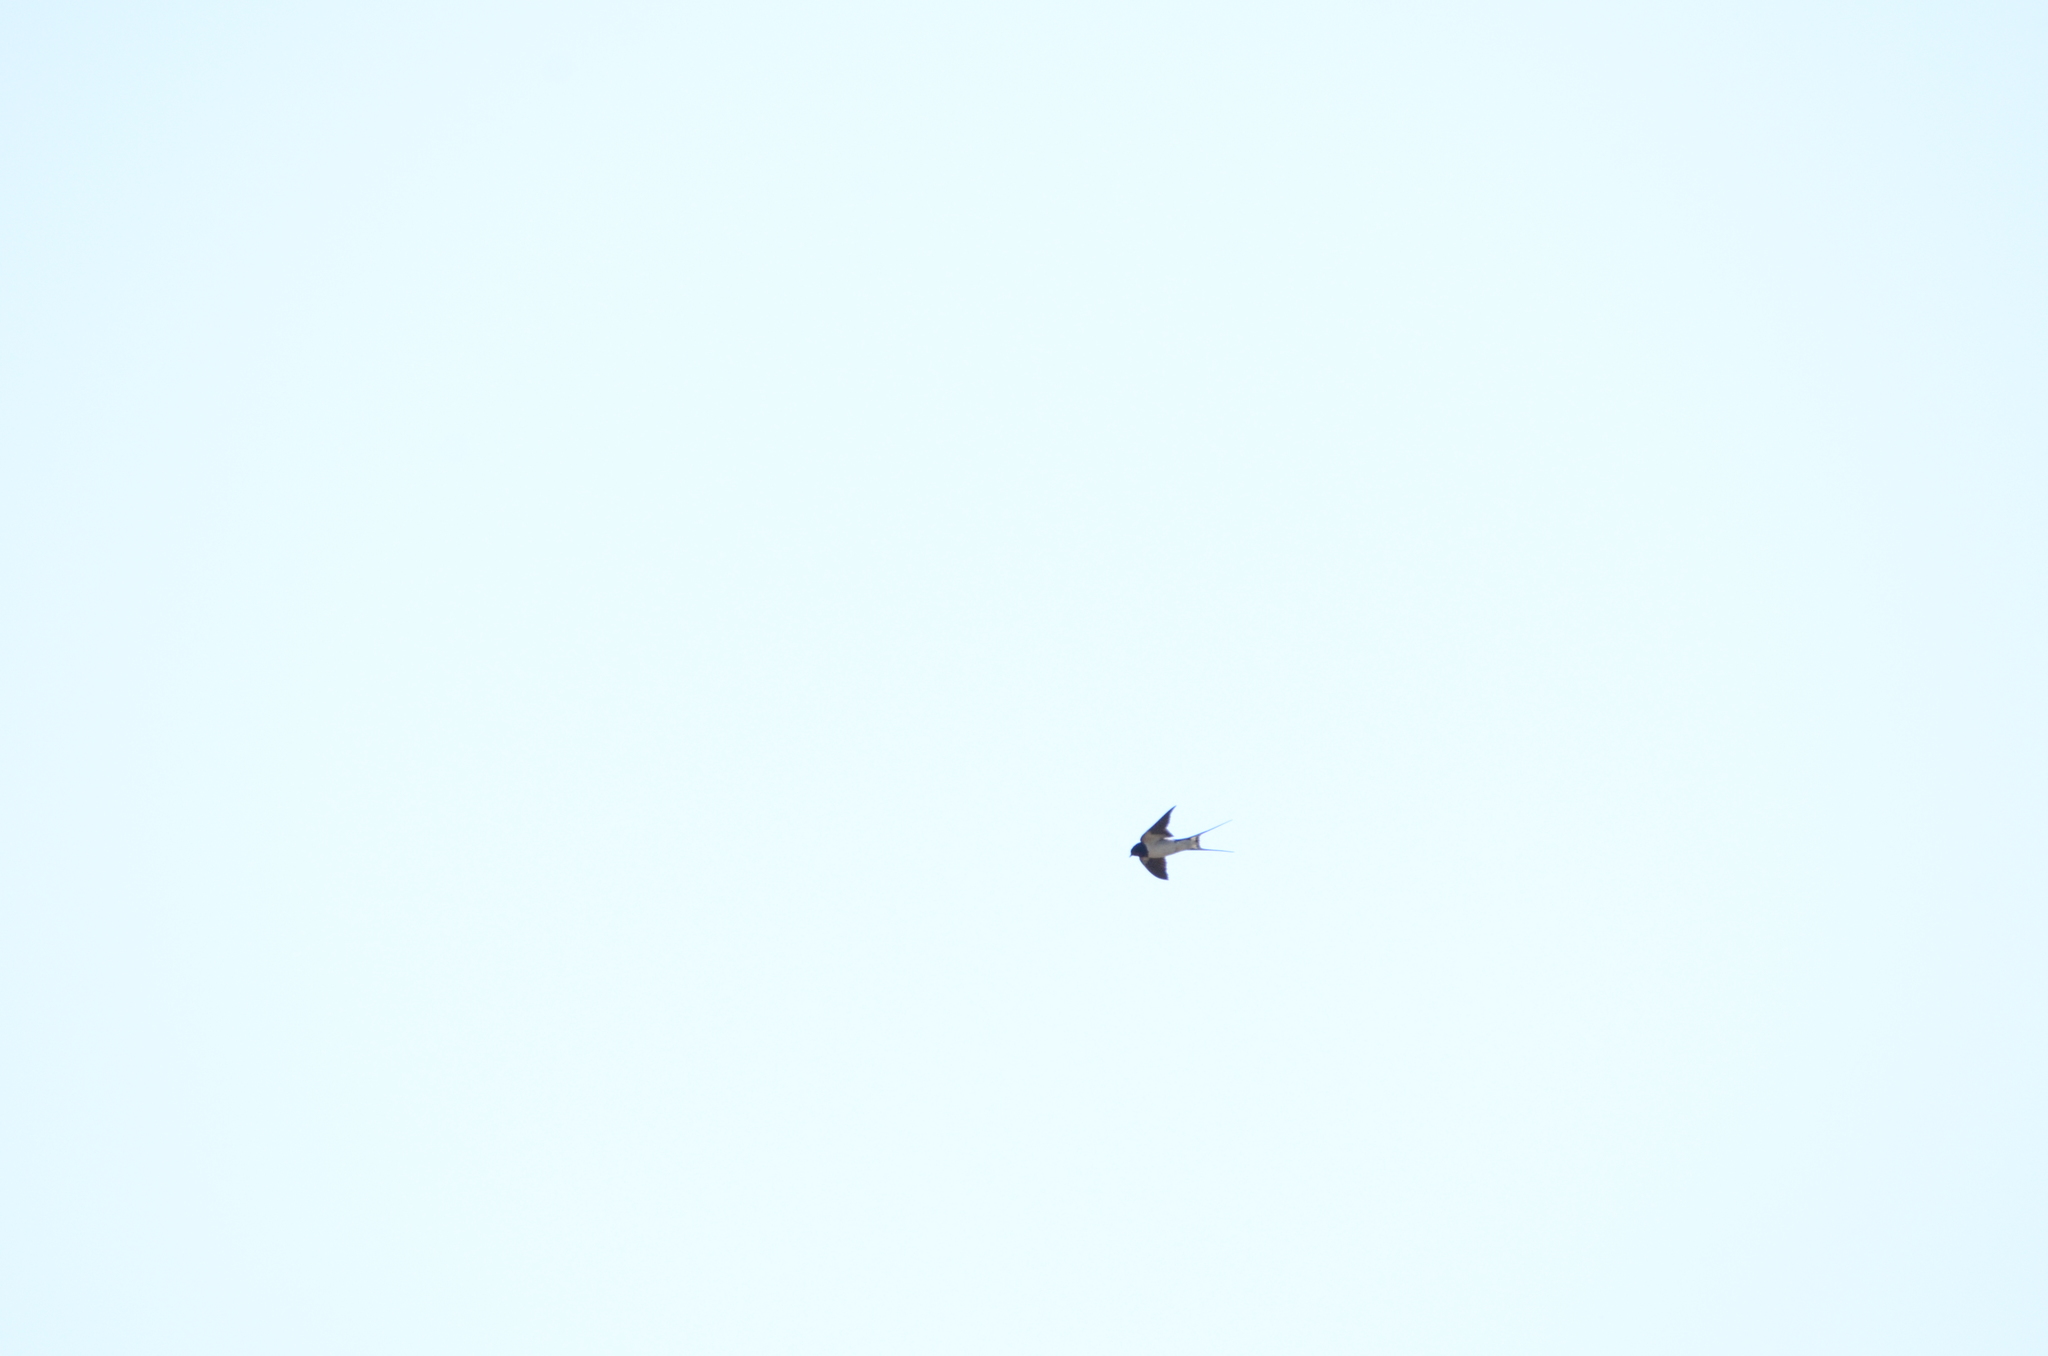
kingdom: Animalia
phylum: Chordata
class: Aves
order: Passeriformes
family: Hirundinidae
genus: Hirundo
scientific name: Hirundo rustica
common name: Barn swallow
